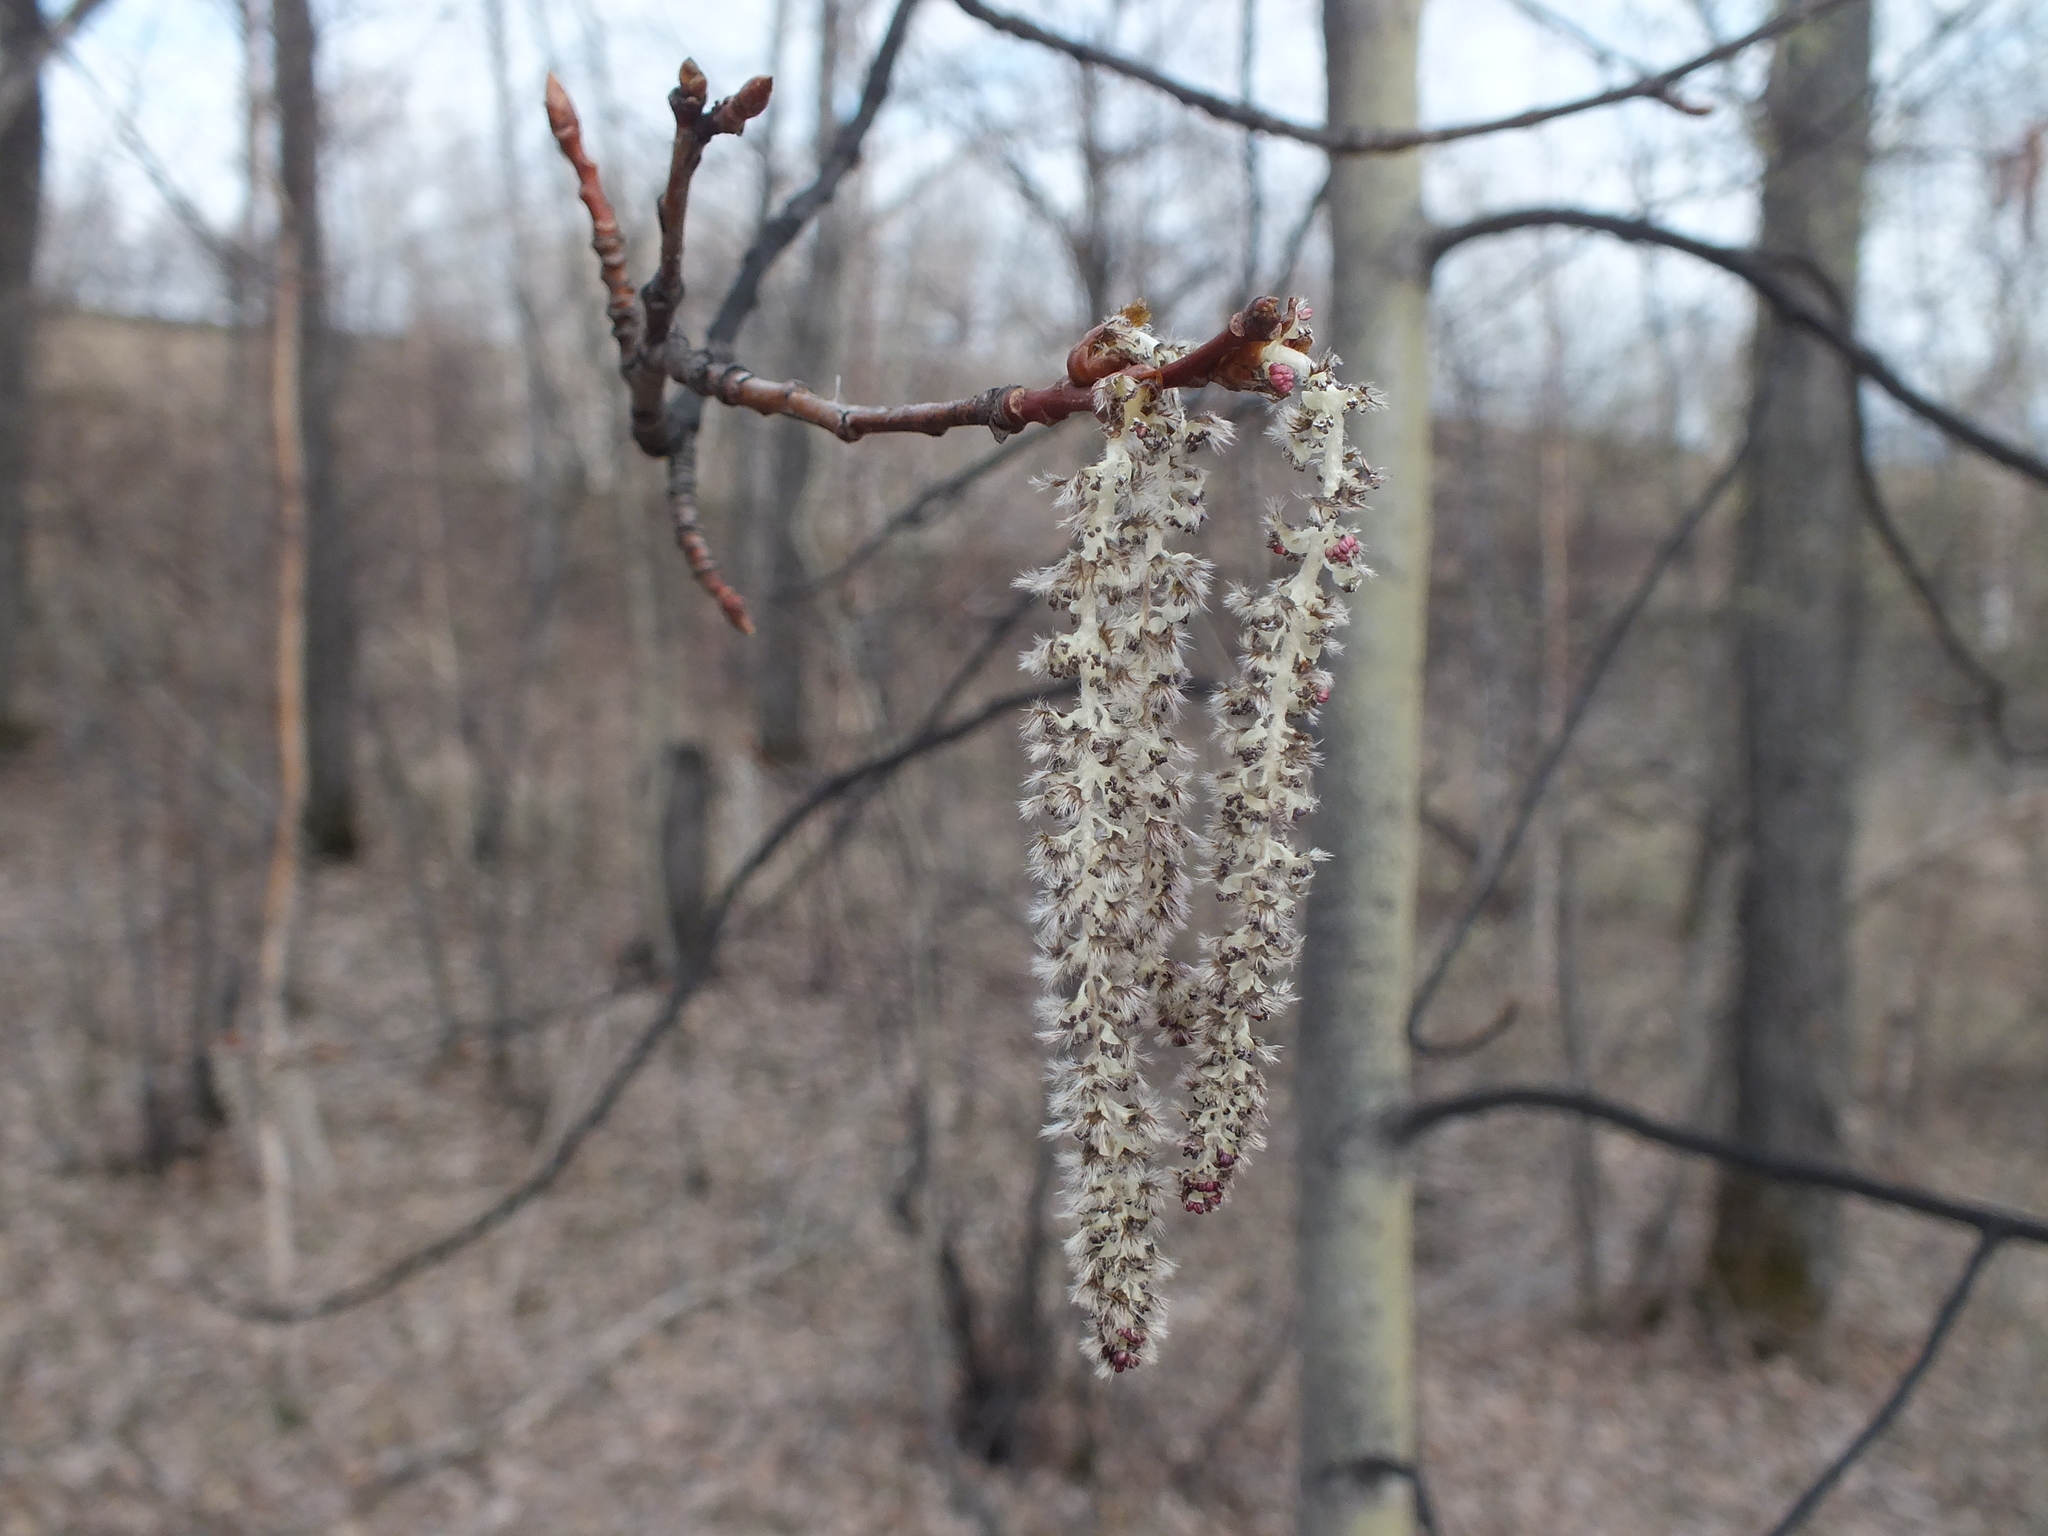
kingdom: Plantae
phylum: Tracheophyta
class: Magnoliopsida
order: Malpighiales
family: Salicaceae
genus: Populus
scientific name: Populus tremula
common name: European aspen
